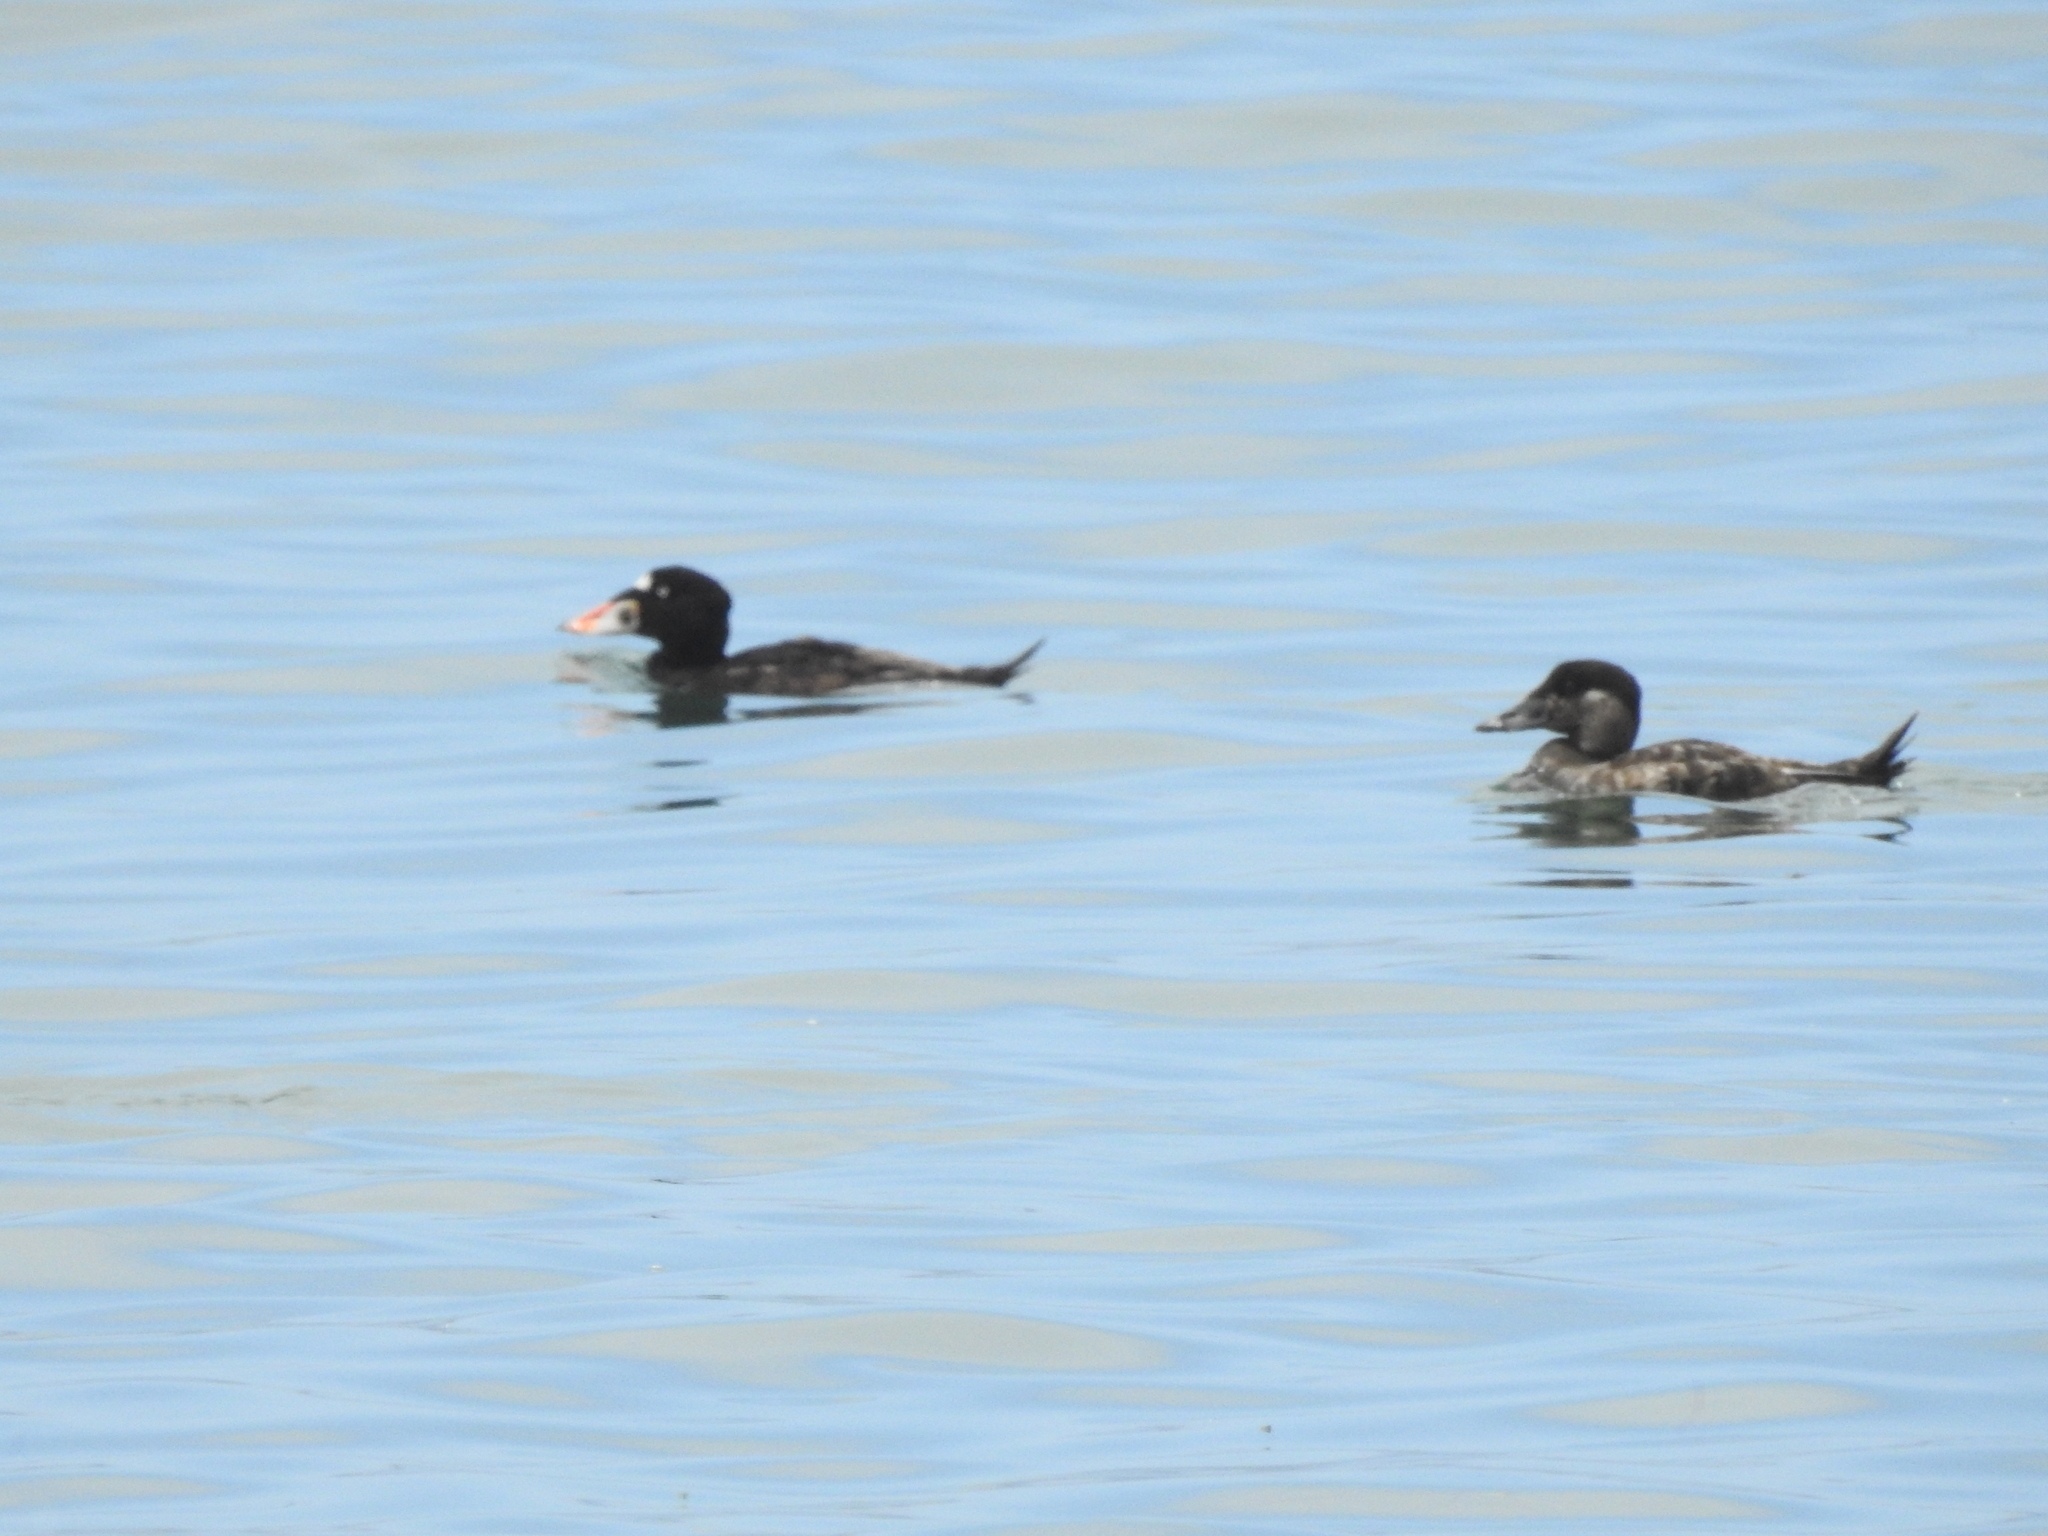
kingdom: Animalia
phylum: Chordata
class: Aves
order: Anseriformes
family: Anatidae
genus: Melanitta
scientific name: Melanitta perspicillata
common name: Surf scoter
